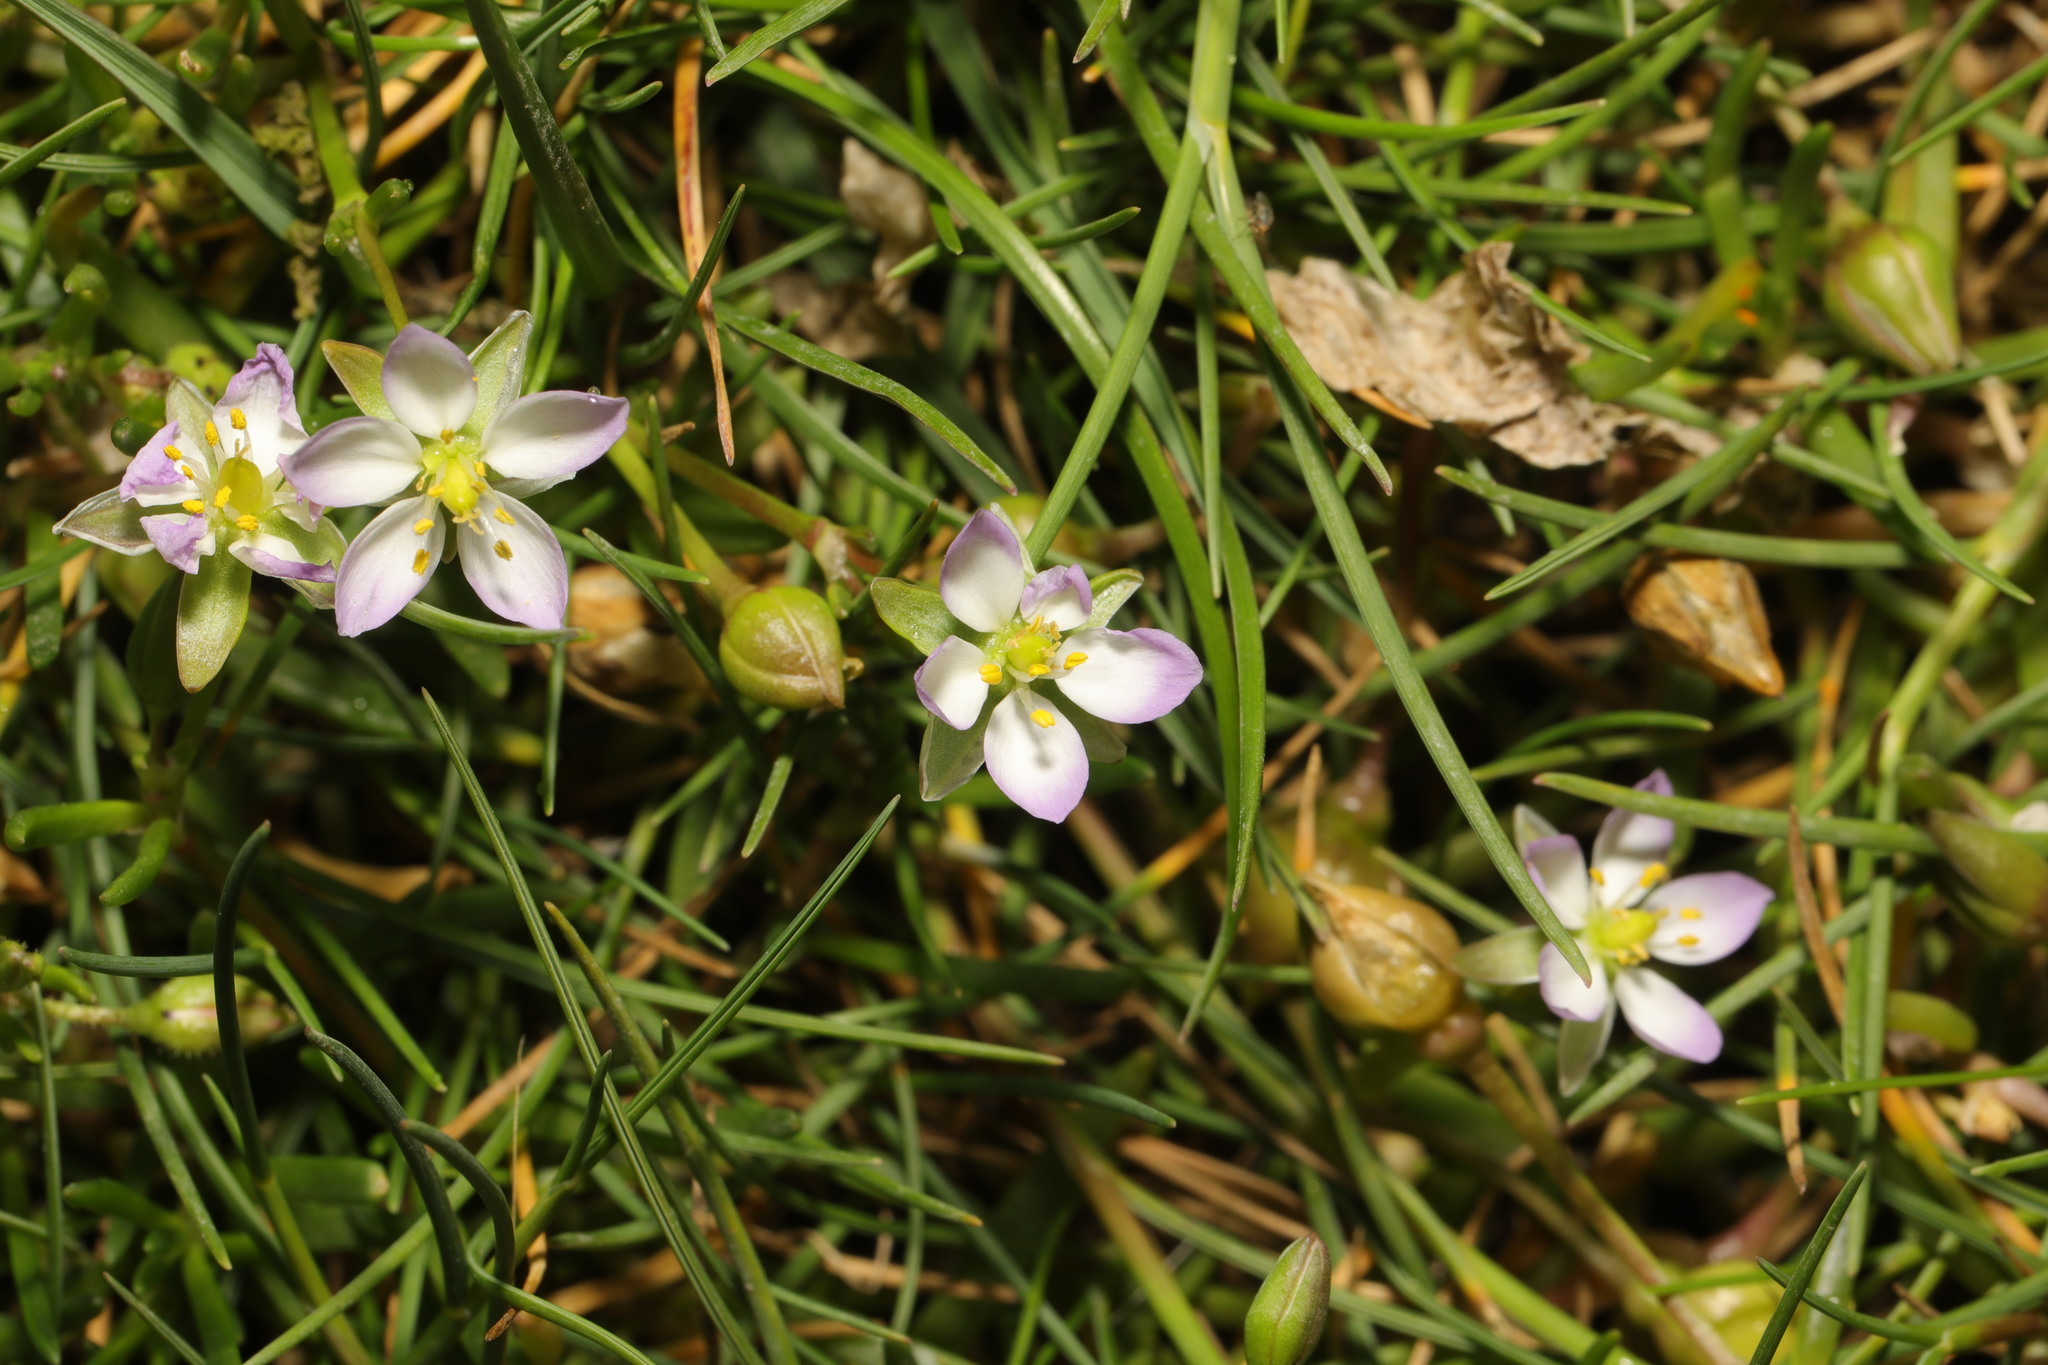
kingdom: Plantae
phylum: Tracheophyta
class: Magnoliopsida
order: Caryophyllales
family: Caryophyllaceae
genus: Spergularia
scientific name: Spergularia media
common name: Greater sea-spurrey
